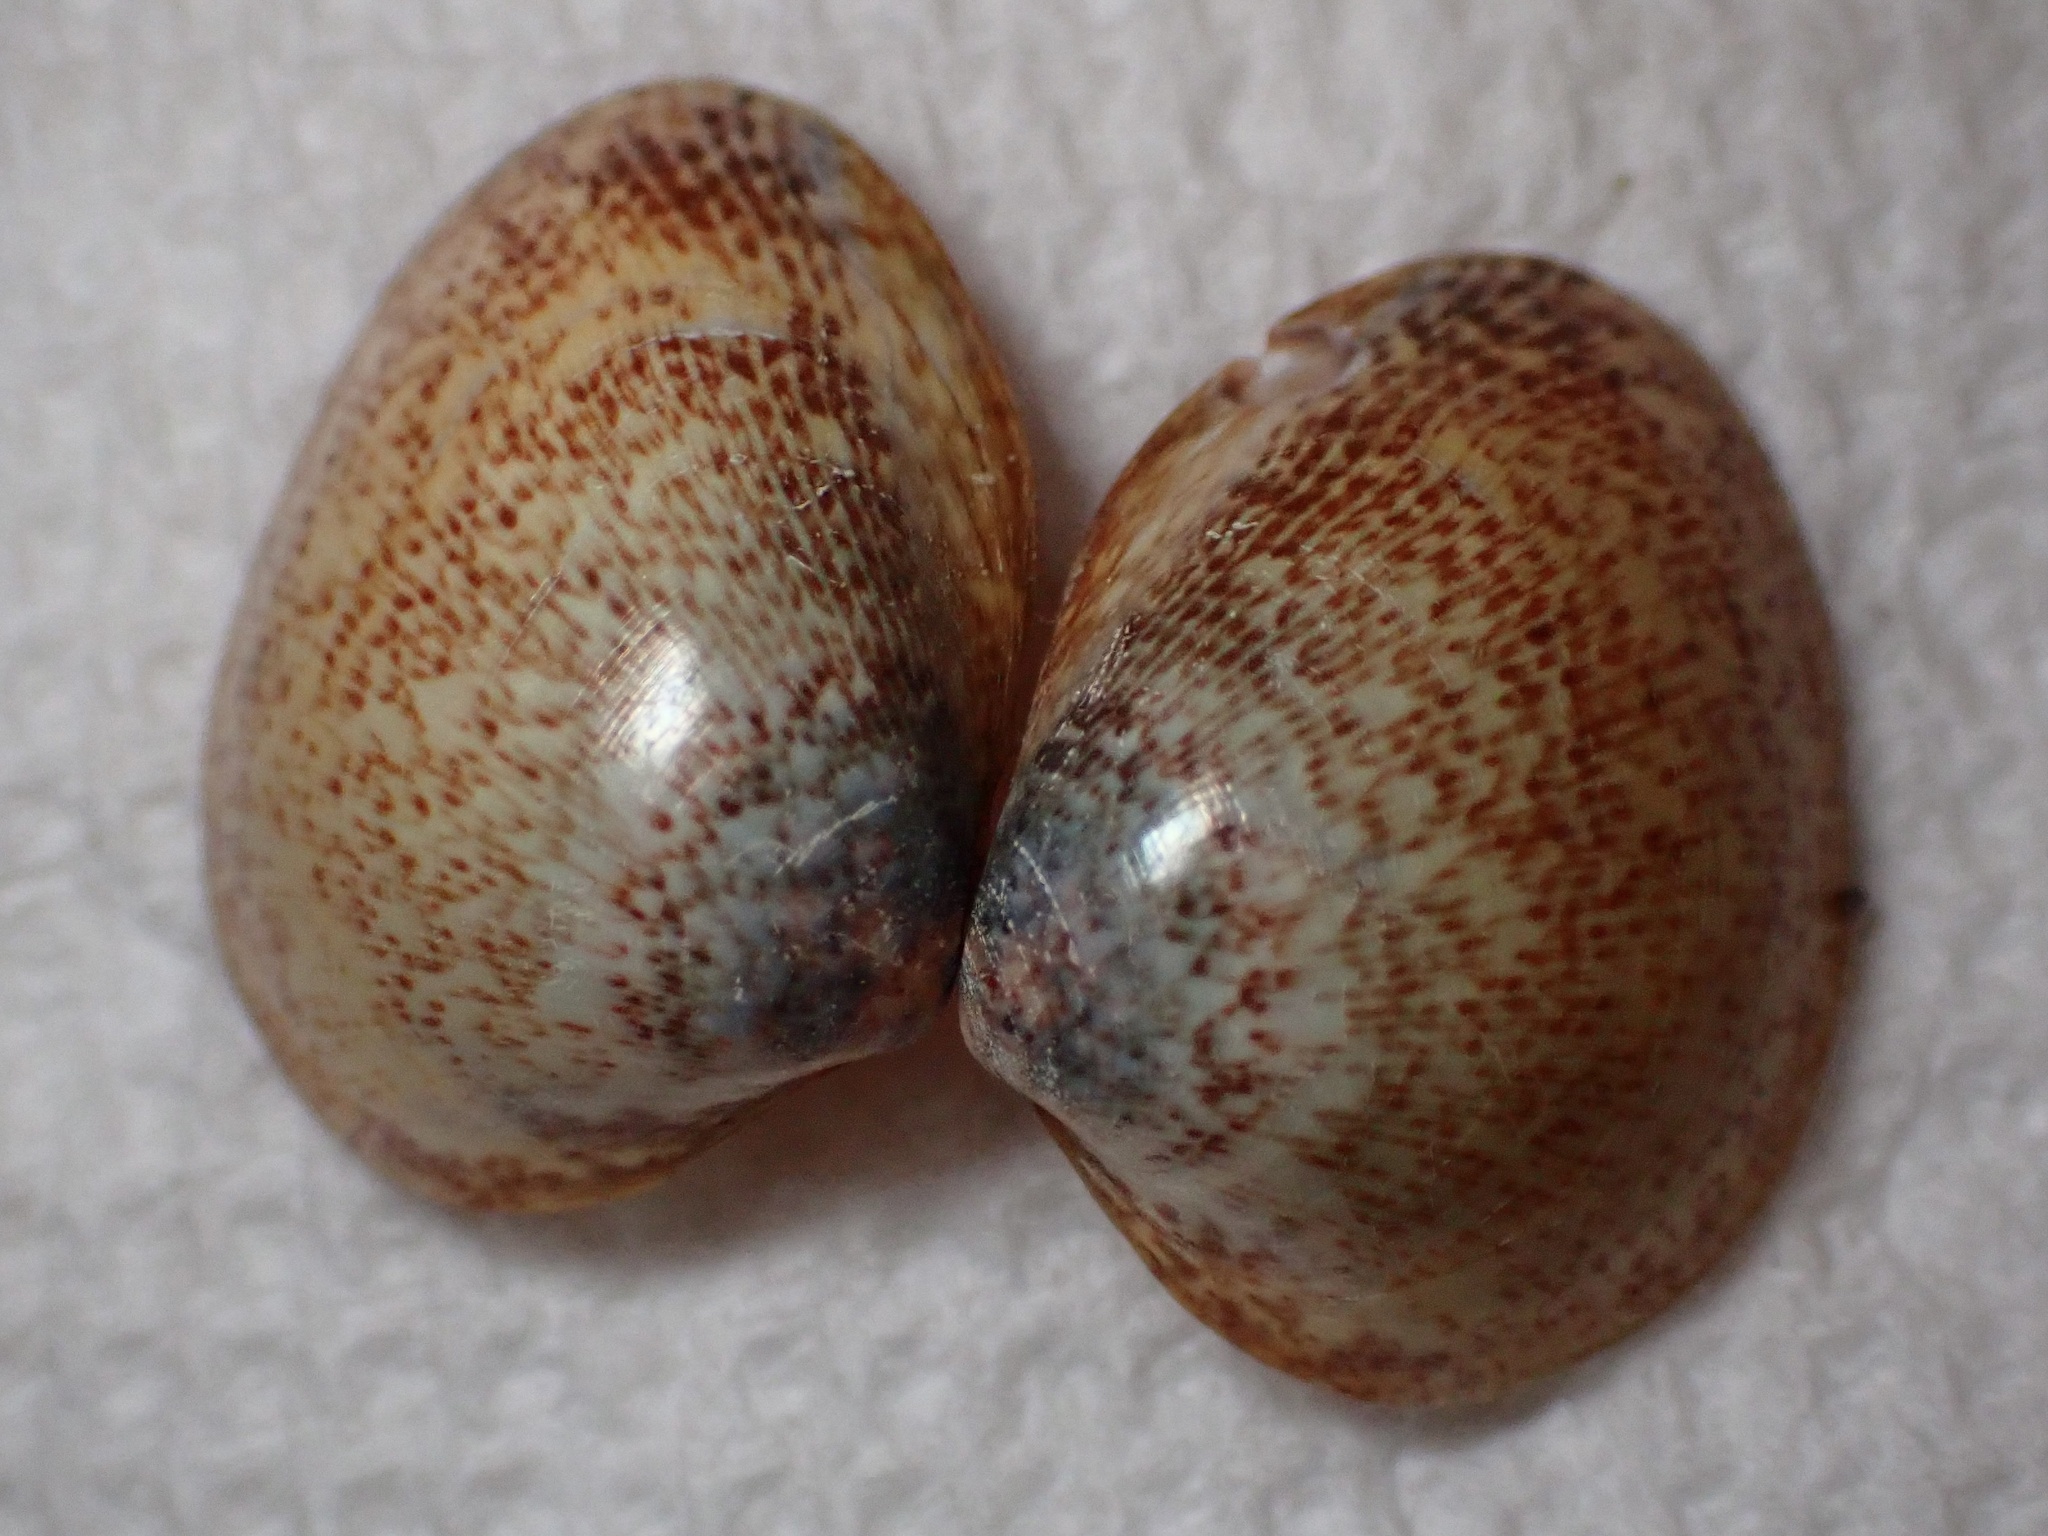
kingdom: Animalia
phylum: Mollusca
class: Bivalvia
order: Cardiida
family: Cardiidae
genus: Laevicardium
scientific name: Laevicardium substriatum
